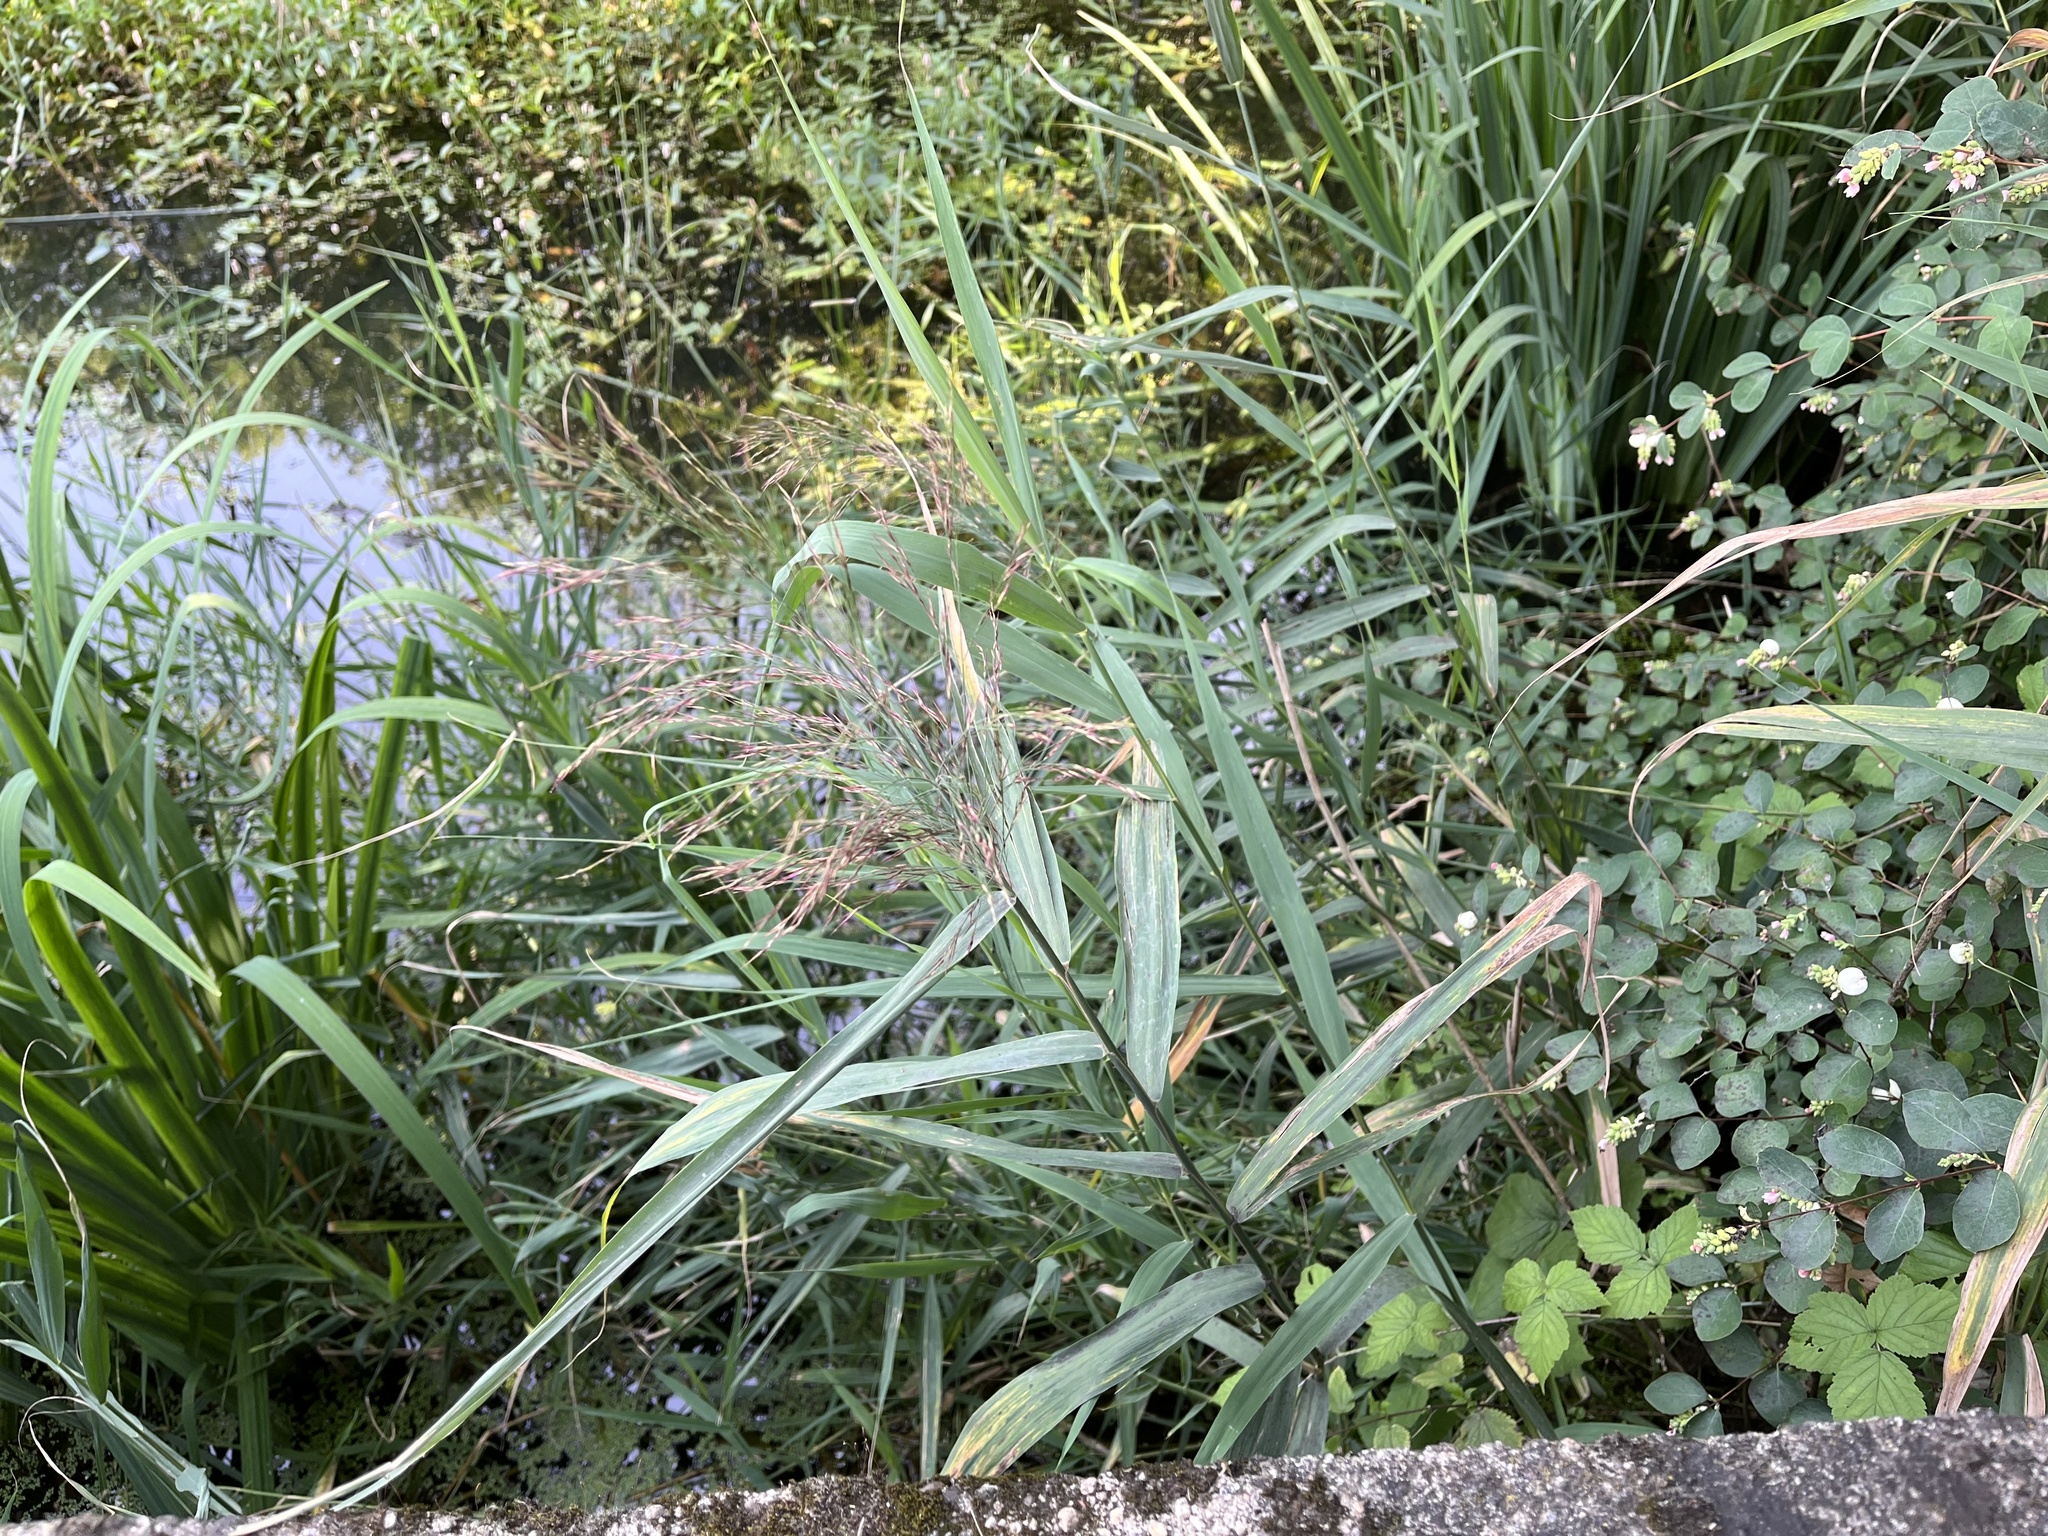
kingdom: Plantae
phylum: Tracheophyta
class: Liliopsida
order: Poales
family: Poaceae
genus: Phragmites
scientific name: Phragmites australis
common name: Common reed
